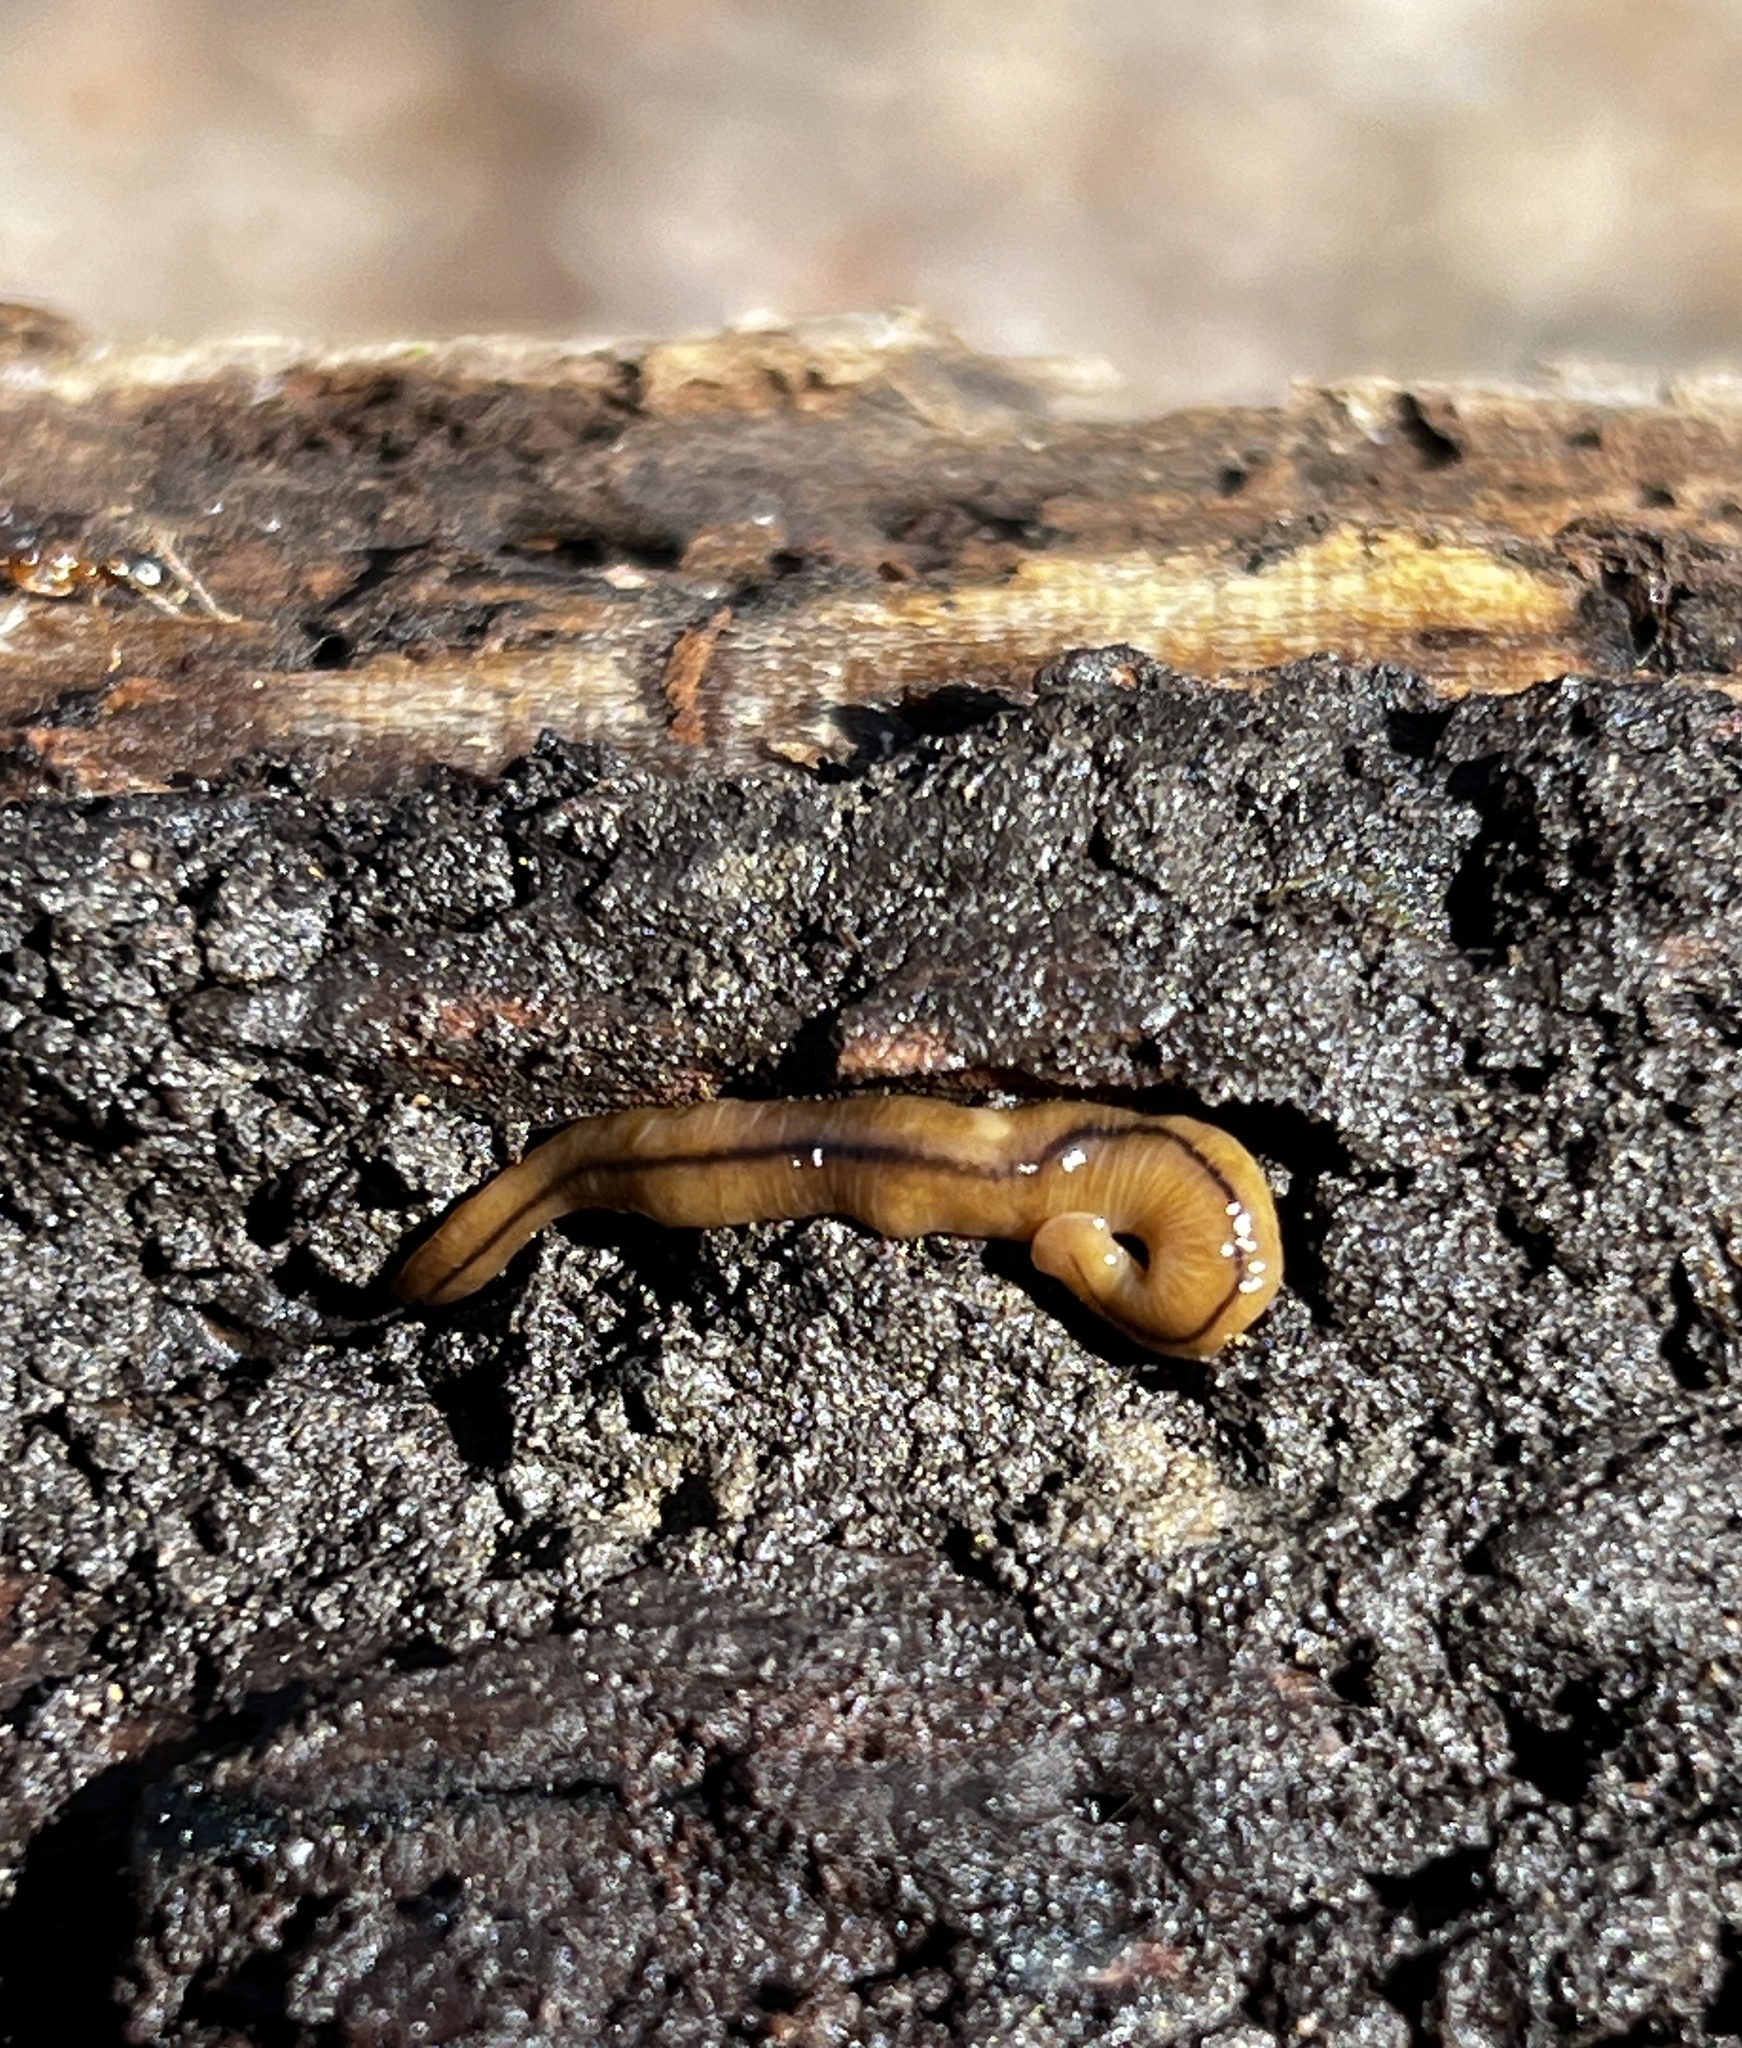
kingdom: Animalia
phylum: Platyhelminthes
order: Tricladida
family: Geoplanidae
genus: Bipalium
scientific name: Bipalium adventitium
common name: Land planarian
